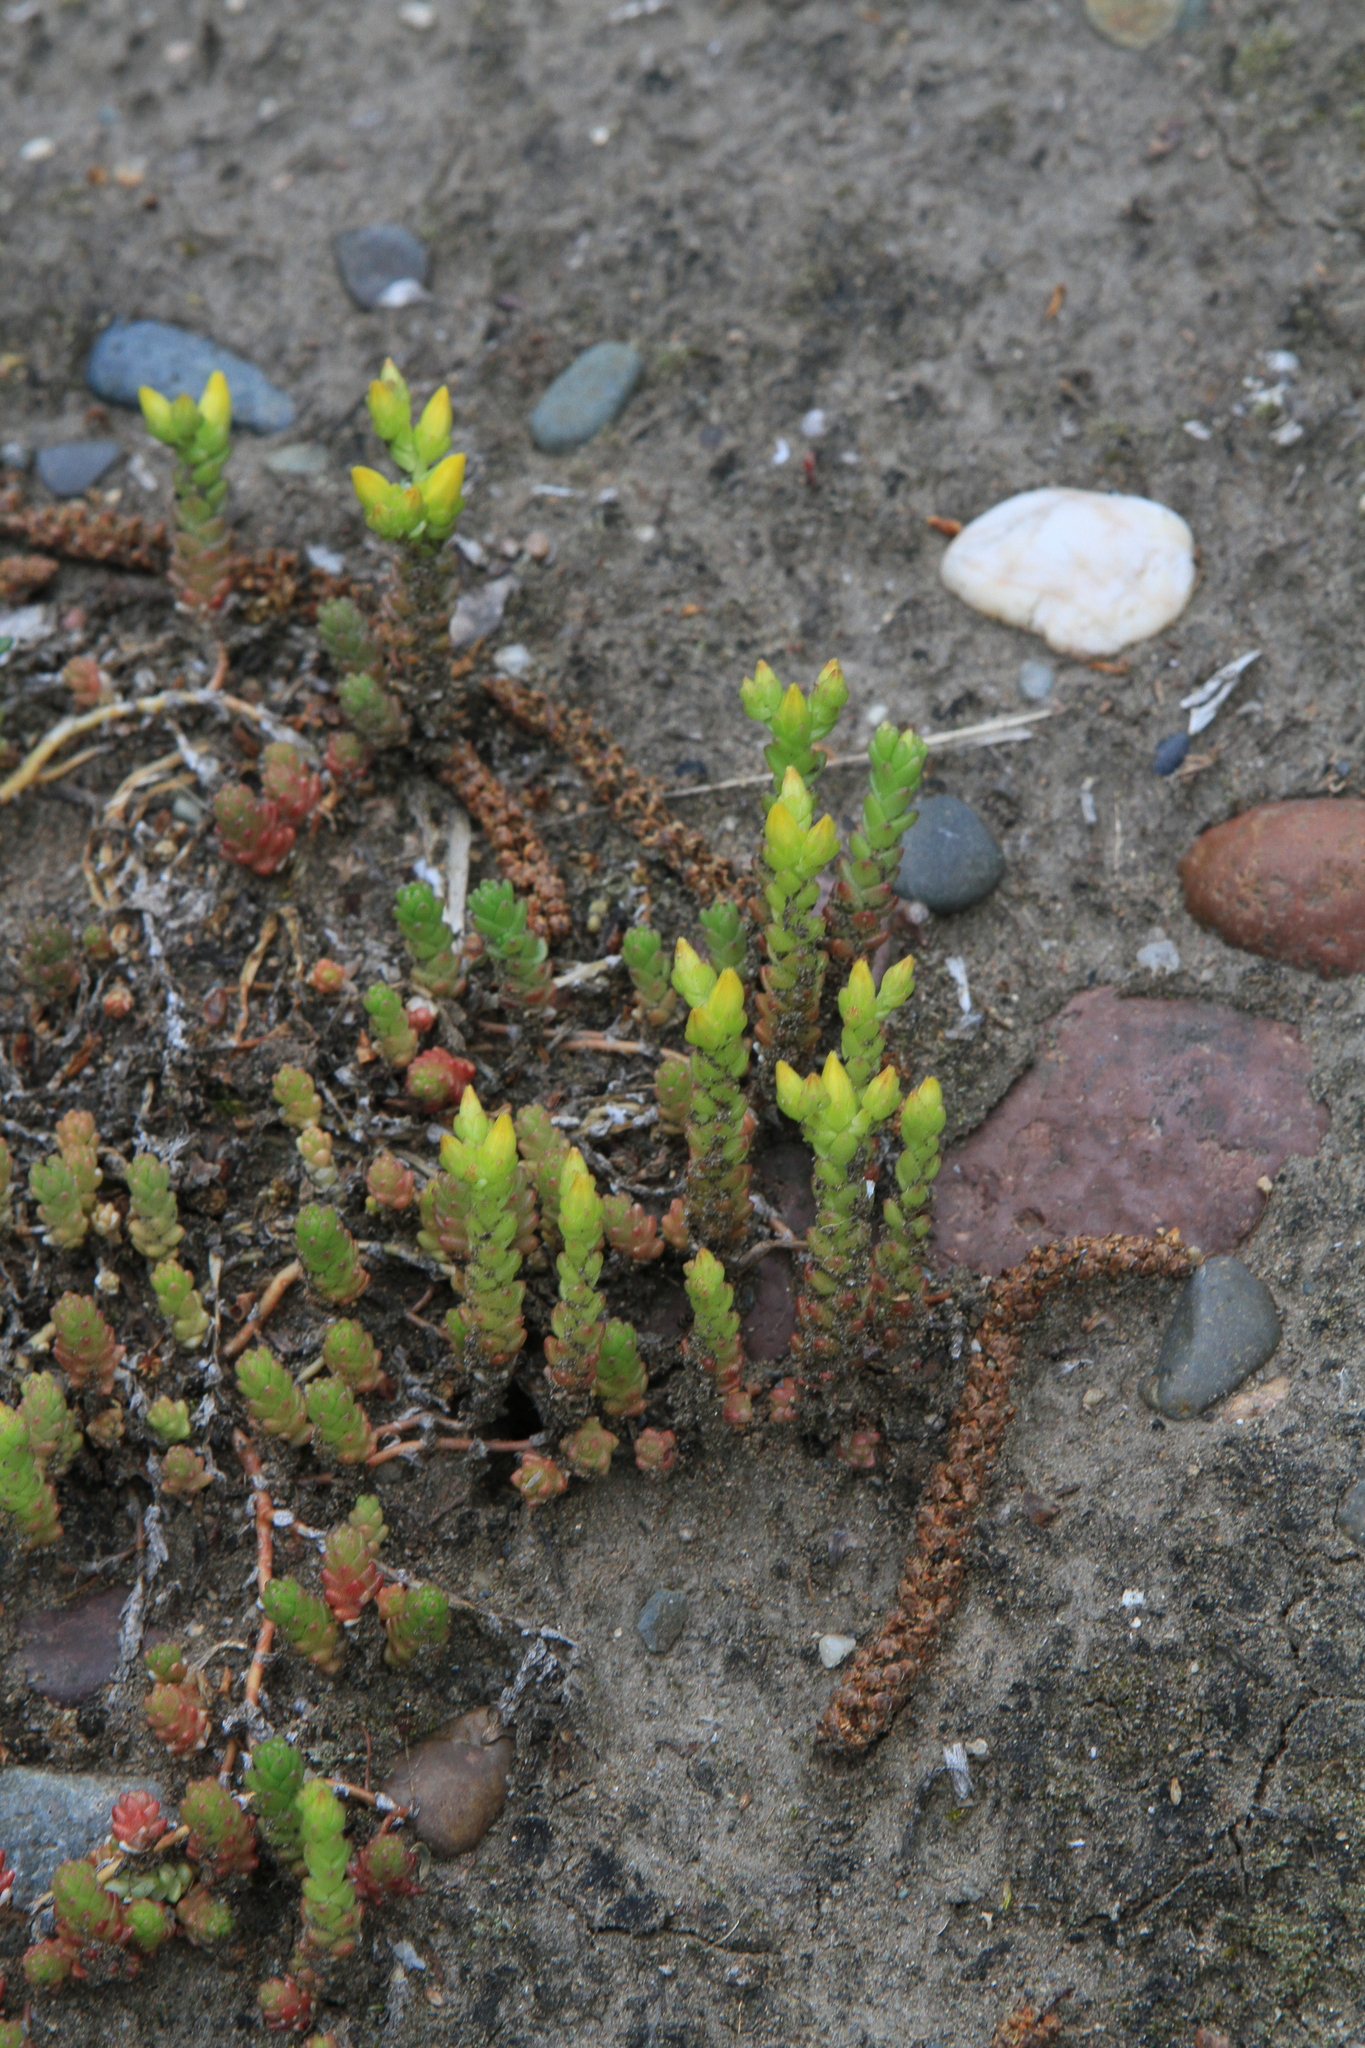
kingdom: Plantae
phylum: Tracheophyta
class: Magnoliopsida
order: Saxifragales
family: Crassulaceae
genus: Sedum
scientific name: Sedum acre
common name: Biting stonecrop
